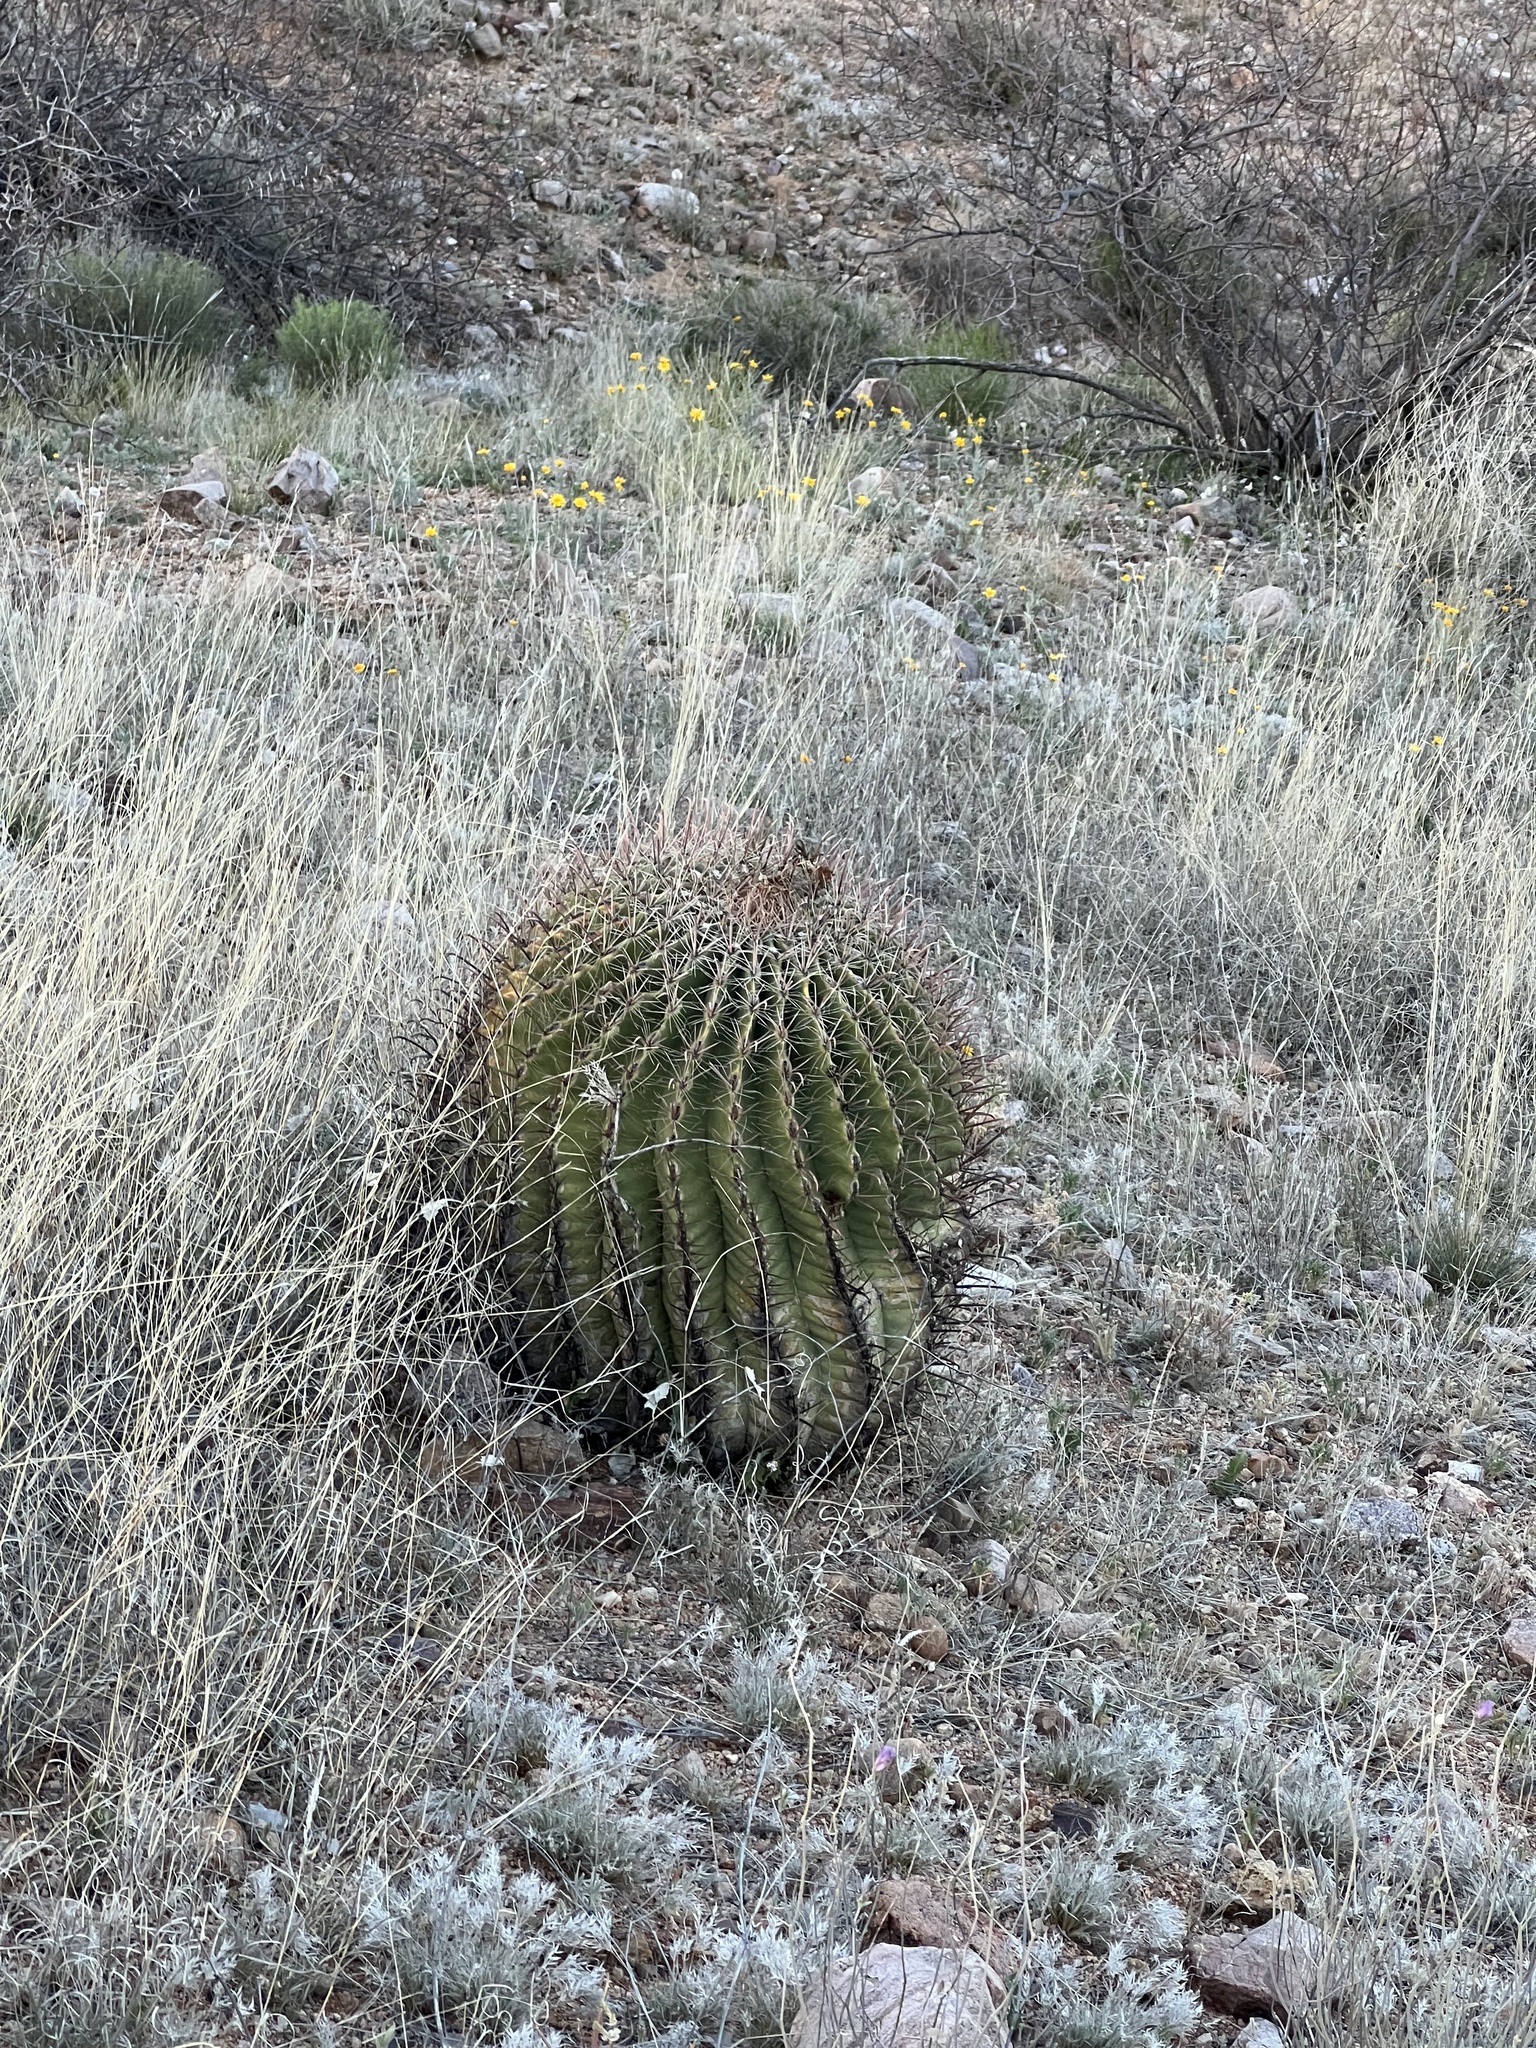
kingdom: Plantae
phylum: Tracheophyta
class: Magnoliopsida
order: Caryophyllales
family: Cactaceae
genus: Ferocactus
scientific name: Ferocactus wislizeni
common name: Candy barrel cactus
